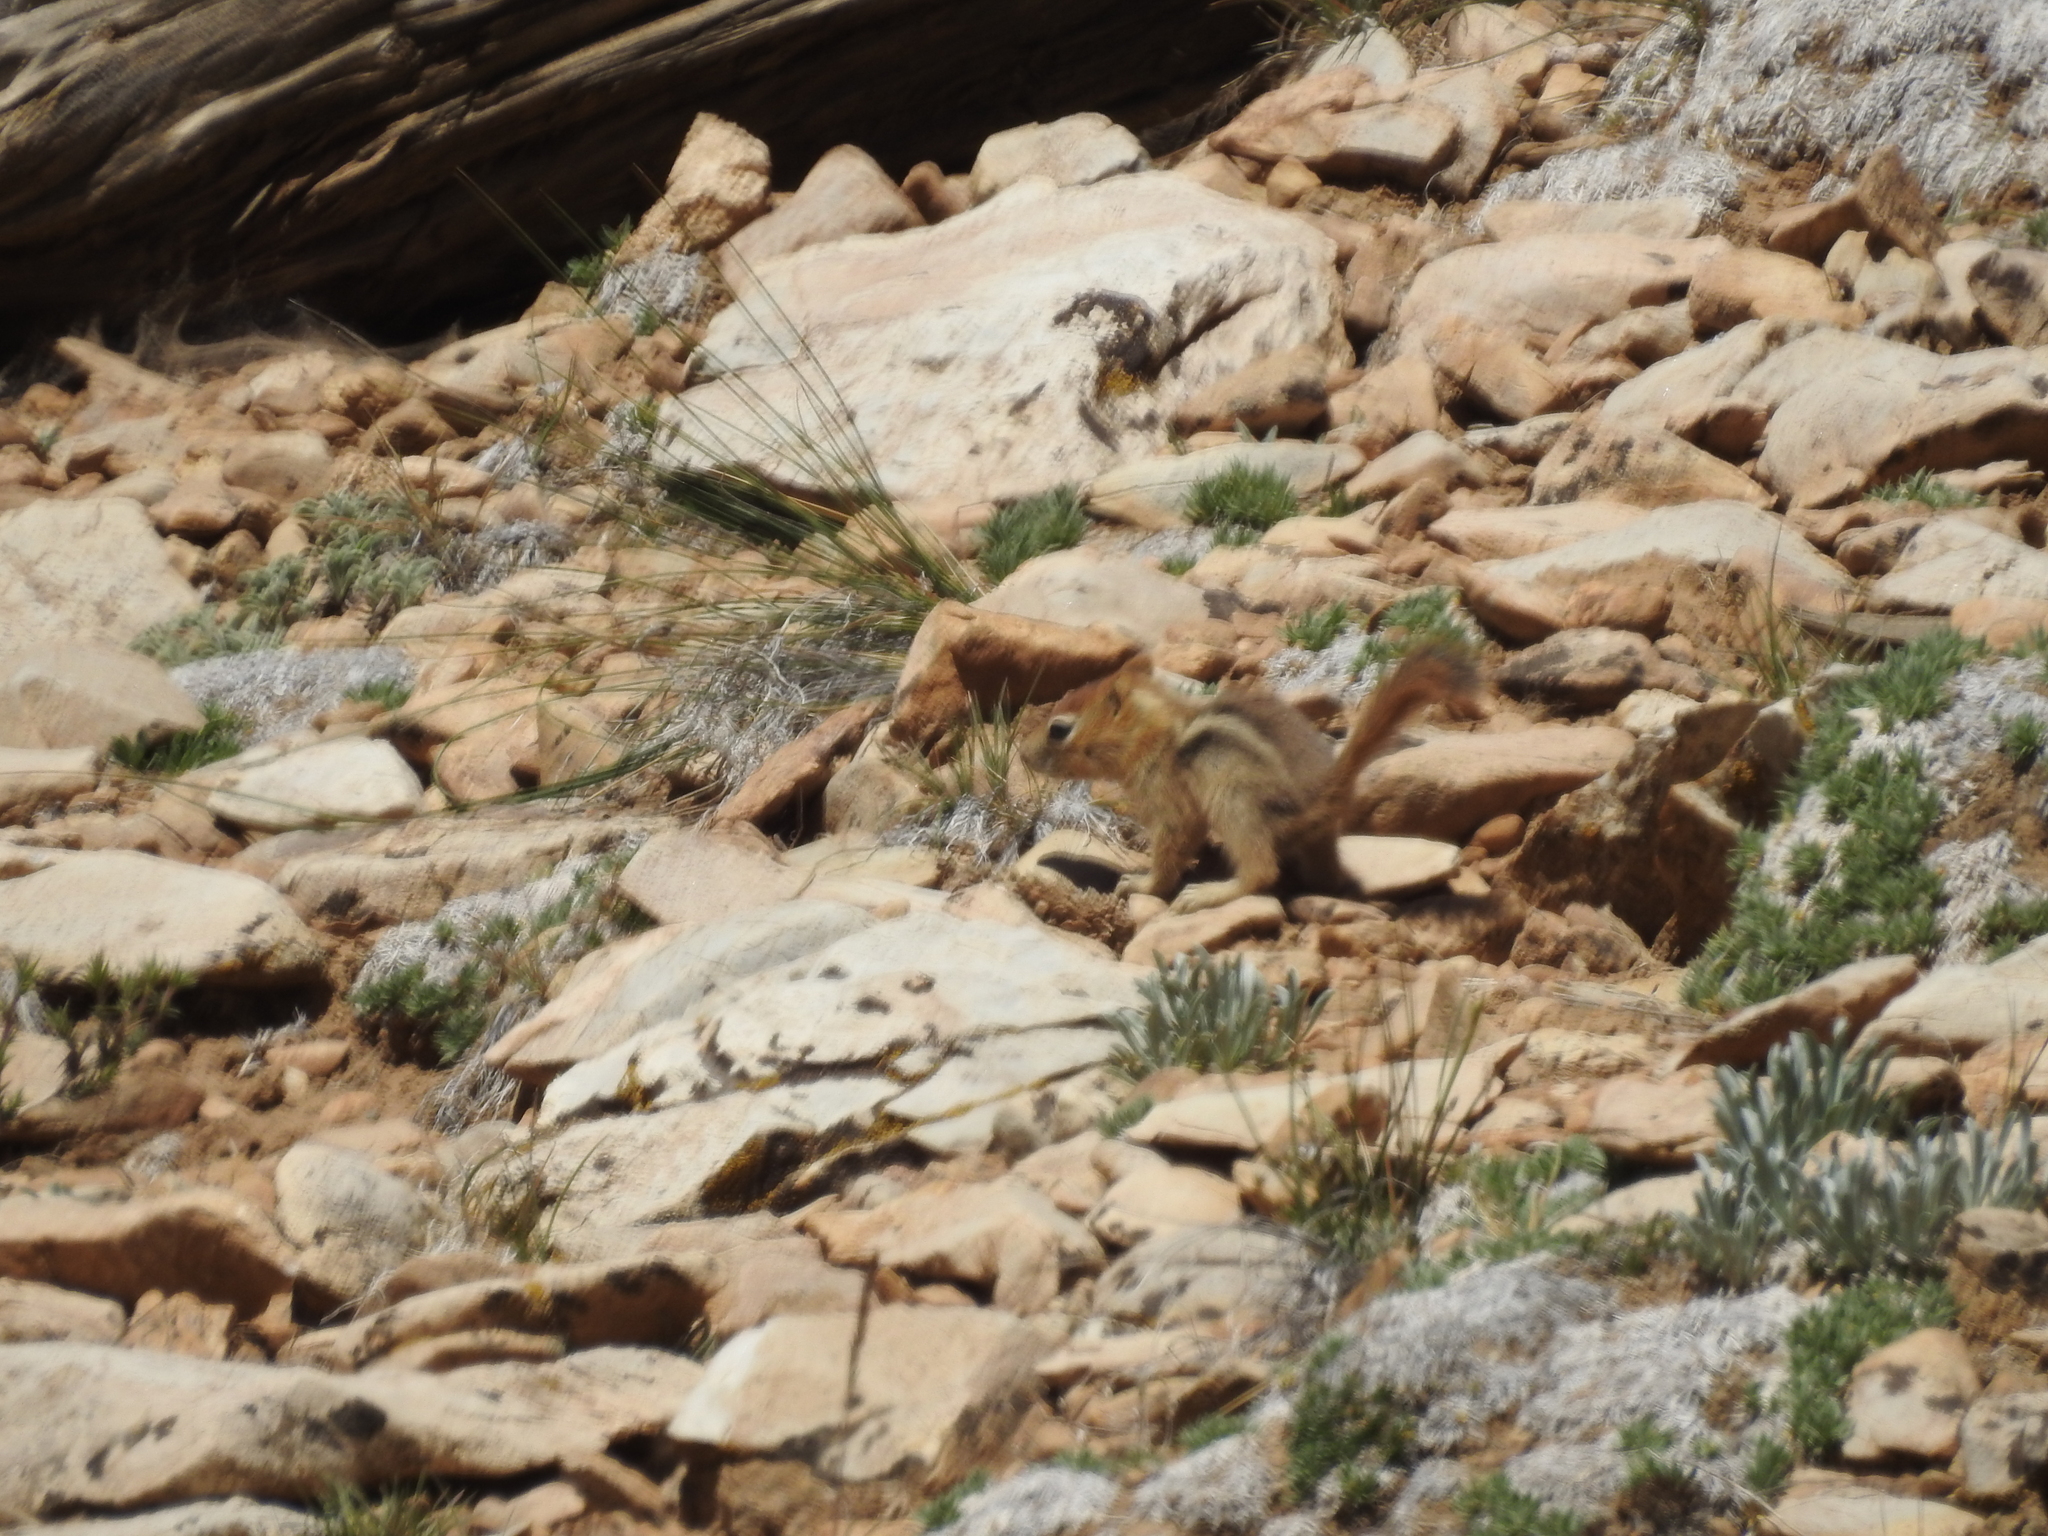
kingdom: Animalia
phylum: Chordata
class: Mammalia
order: Rodentia
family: Sciuridae
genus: Callospermophilus
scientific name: Callospermophilus lateralis
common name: Golden-mantled ground squirrel
